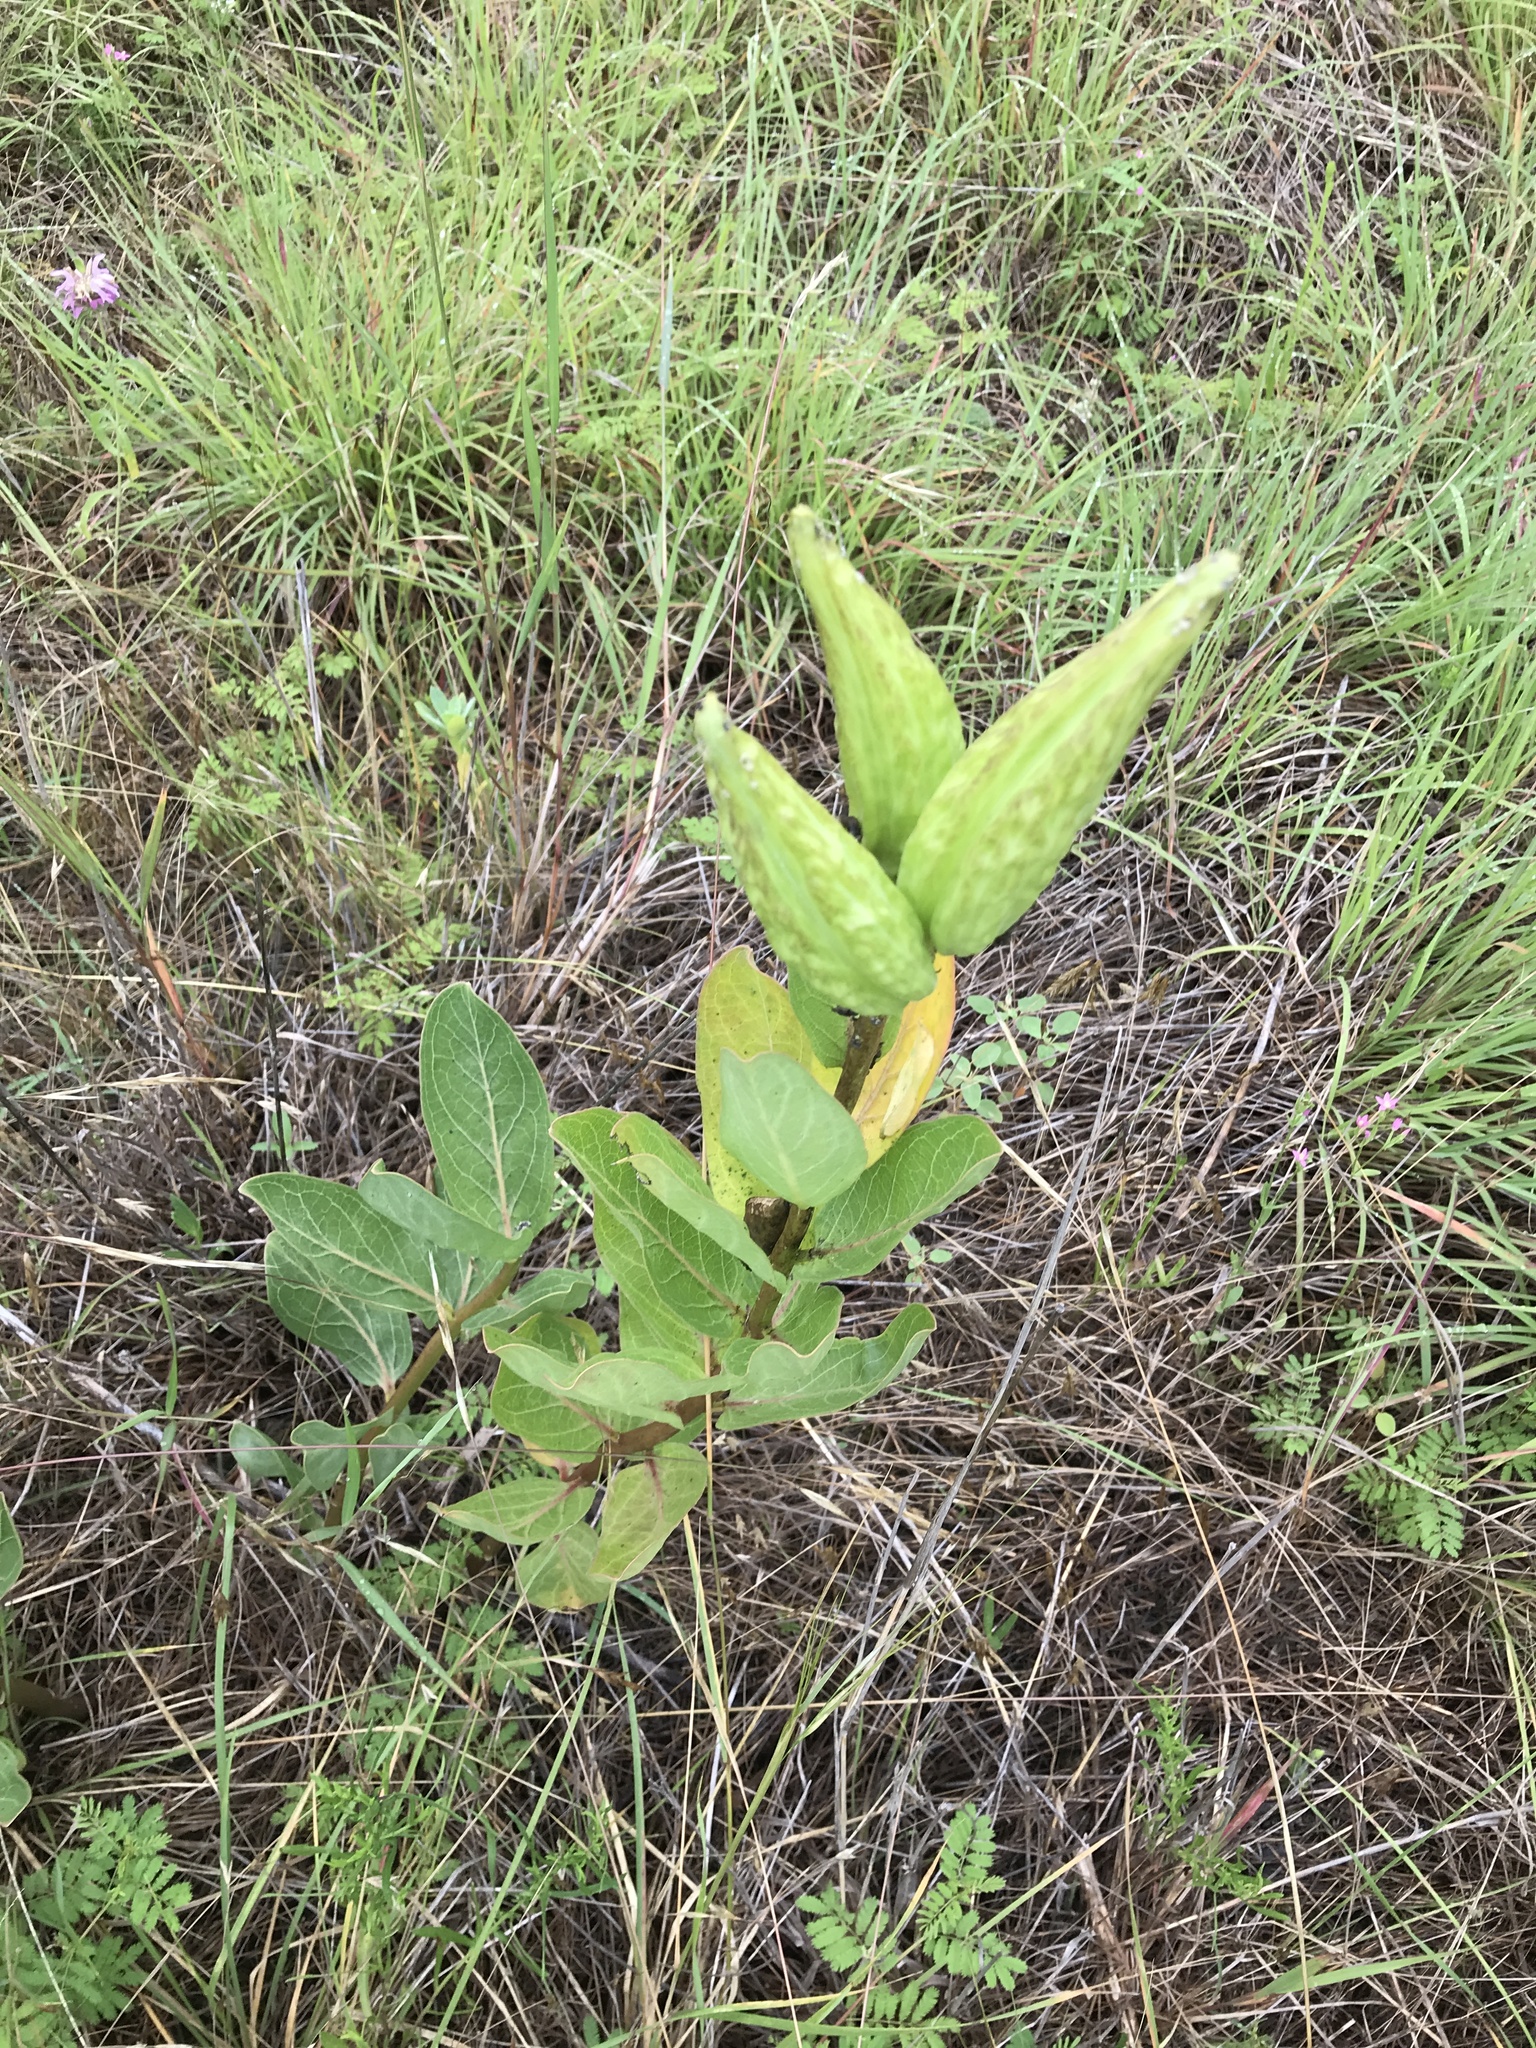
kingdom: Plantae
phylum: Tracheophyta
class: Magnoliopsida
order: Gentianales
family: Apocynaceae
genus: Asclepias
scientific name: Asclepias viridis
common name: Antelope-horns
